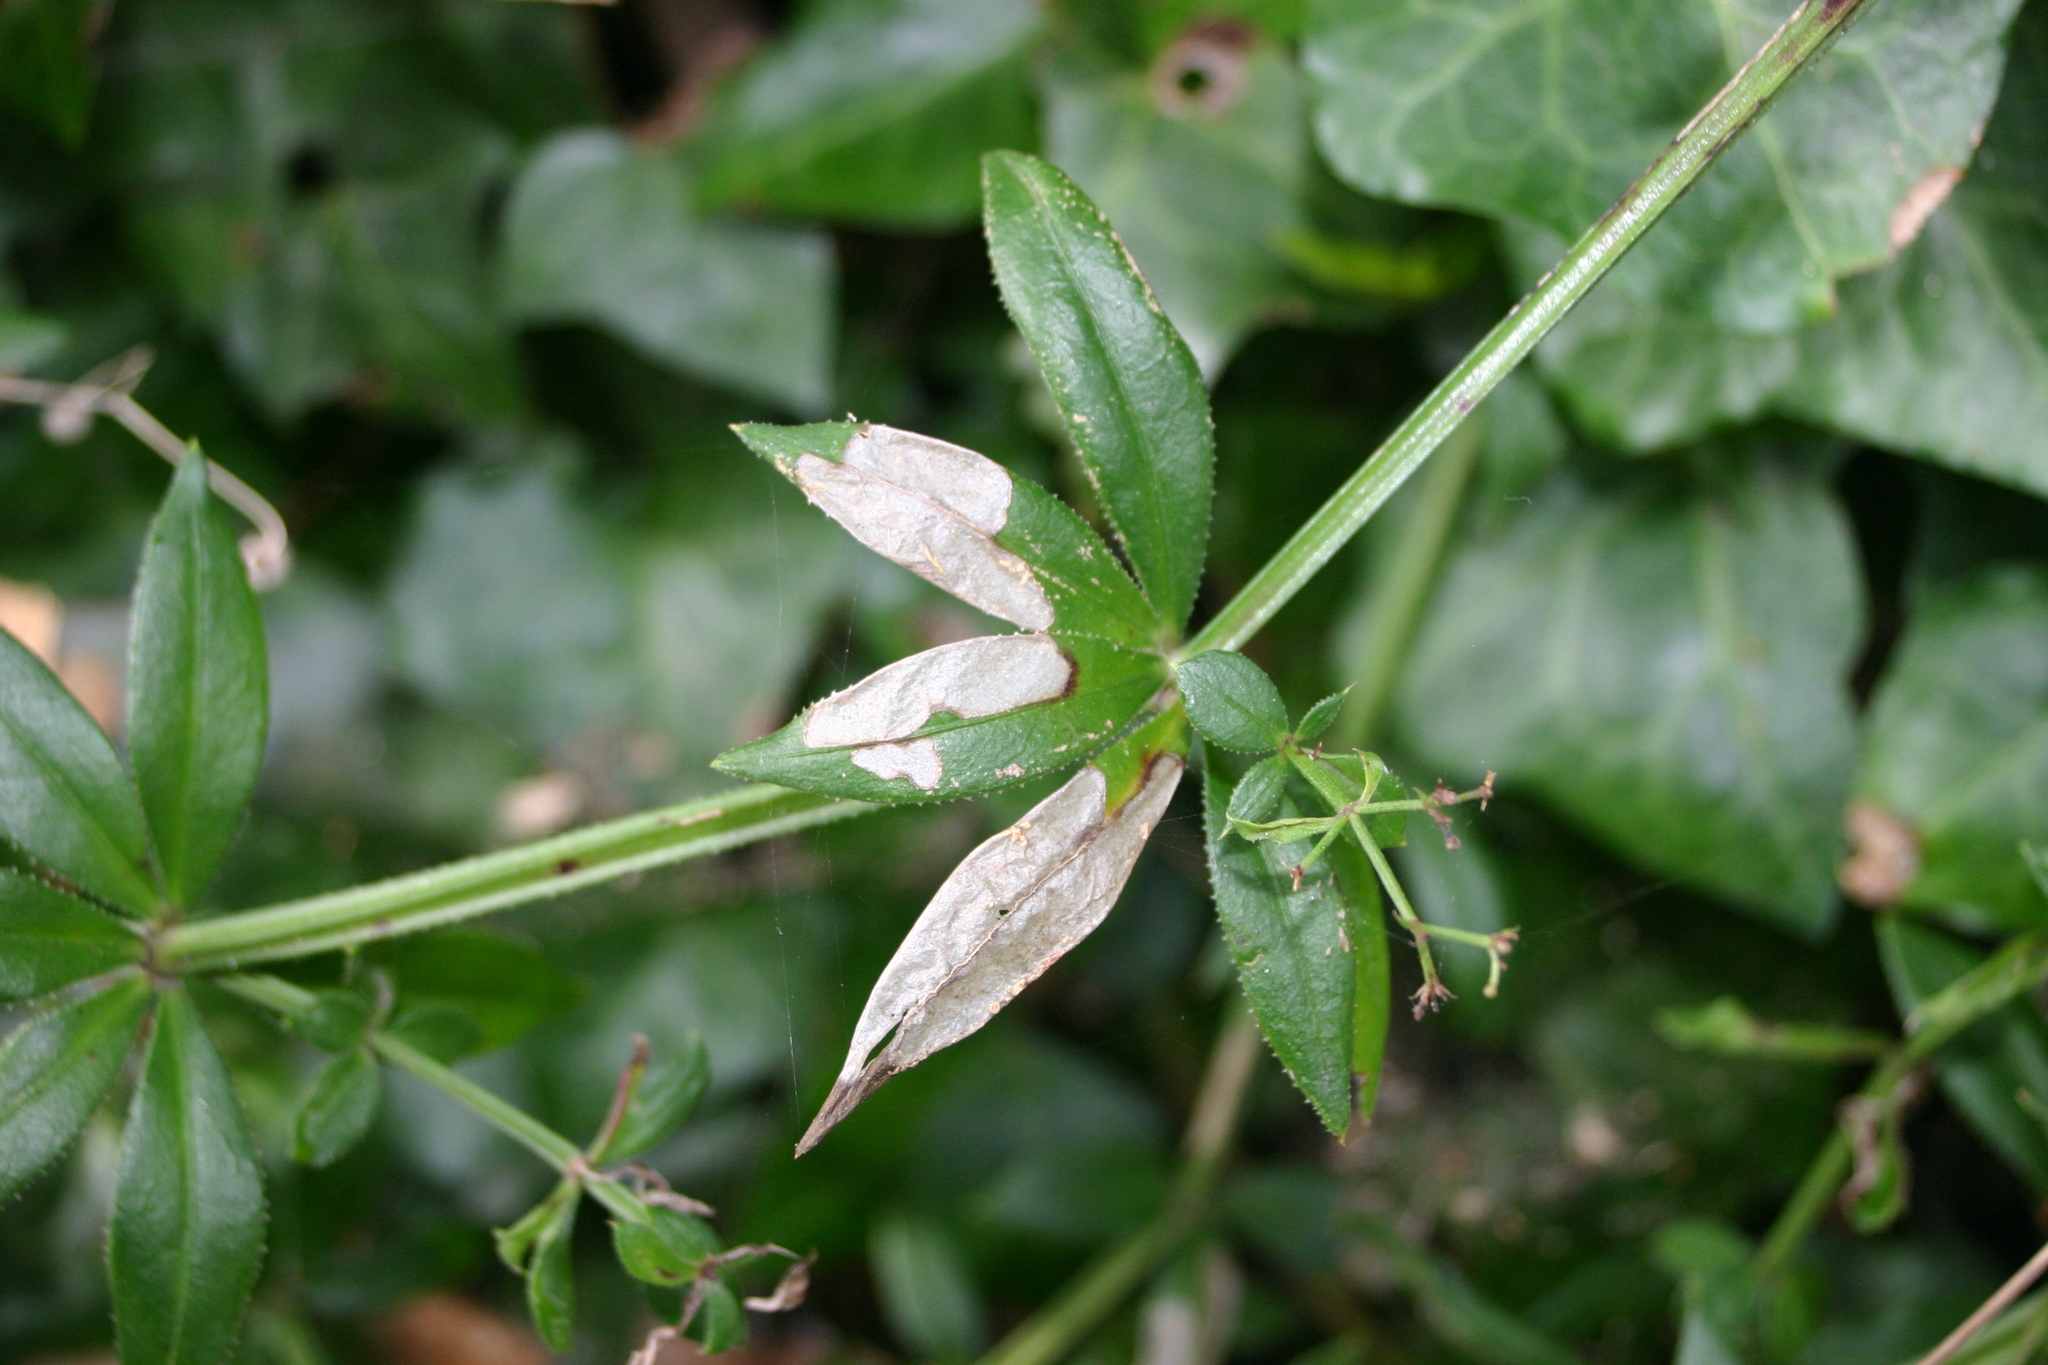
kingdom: Plantae
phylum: Tracheophyta
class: Magnoliopsida
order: Gentianales
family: Rubiaceae
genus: Rubia
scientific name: Rubia peregrina
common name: Wild madder
